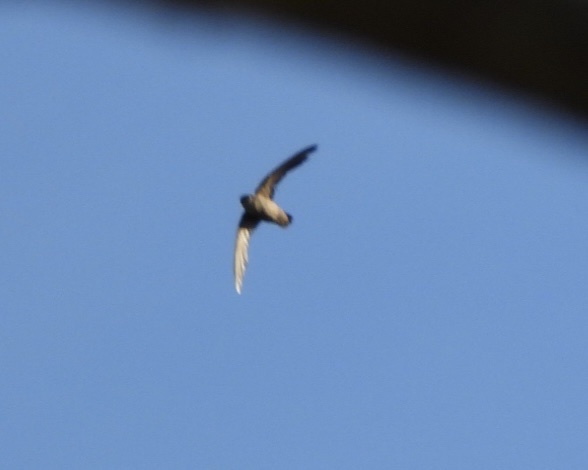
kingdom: Animalia
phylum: Chordata
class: Aves
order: Apodiformes
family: Apodidae
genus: Chaetura
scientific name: Chaetura vauxi
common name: Vaux's swift
